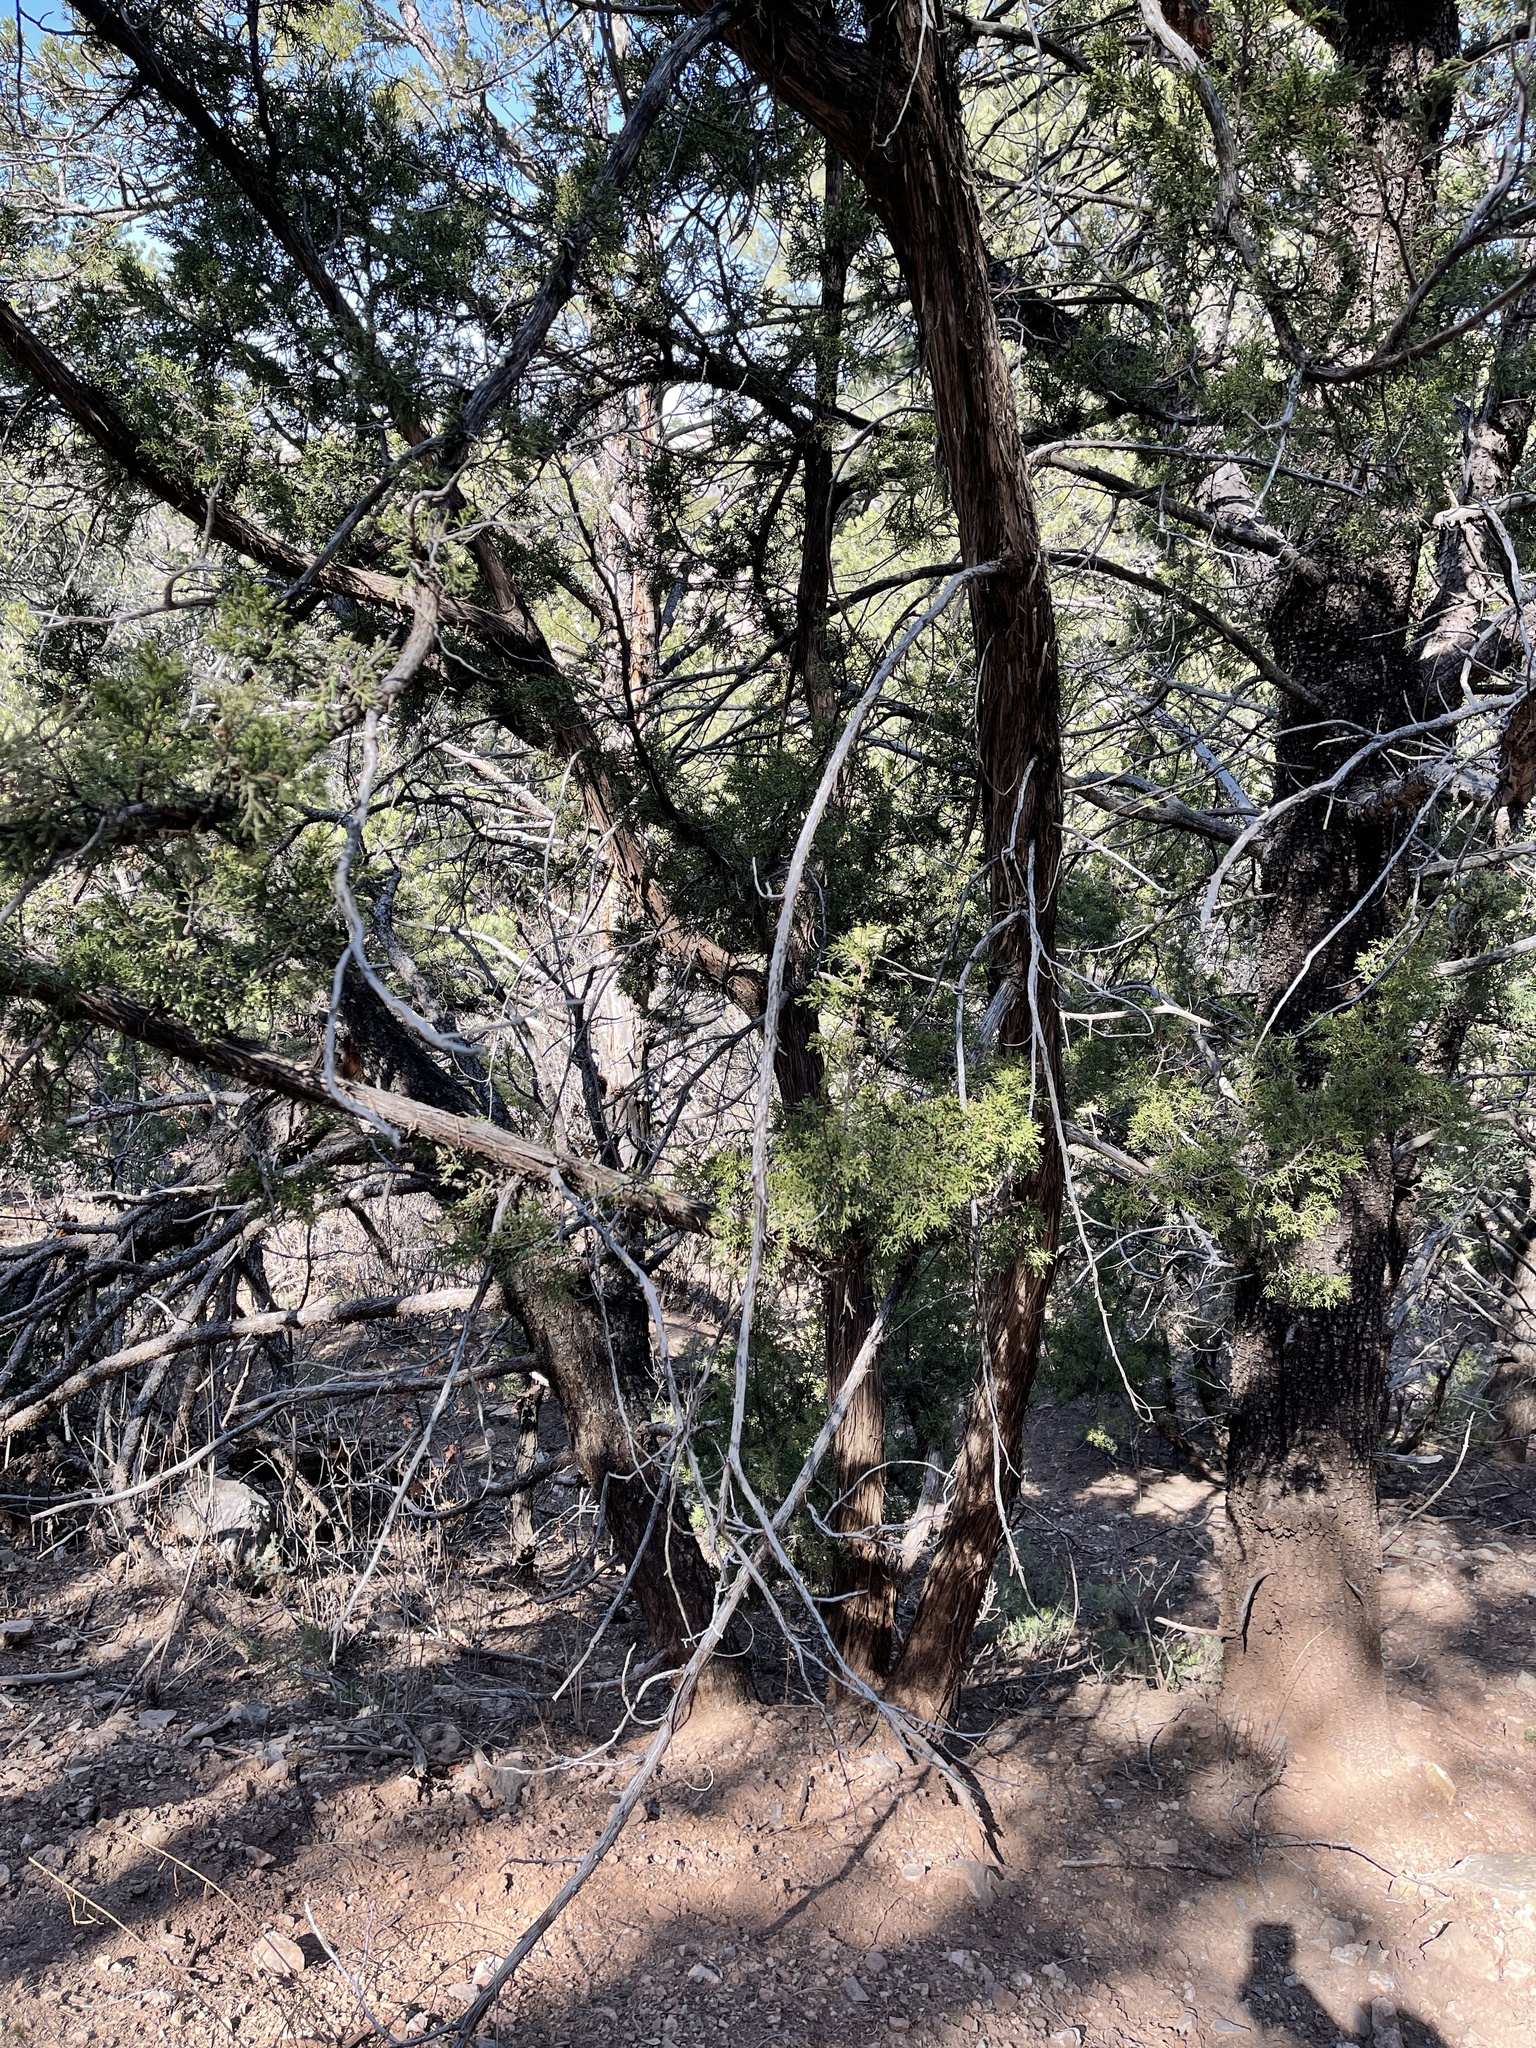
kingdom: Plantae
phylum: Tracheophyta
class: Pinopsida
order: Pinales
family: Cupressaceae
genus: Juniperus
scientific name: Juniperus deppeana
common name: Alligator juniper
